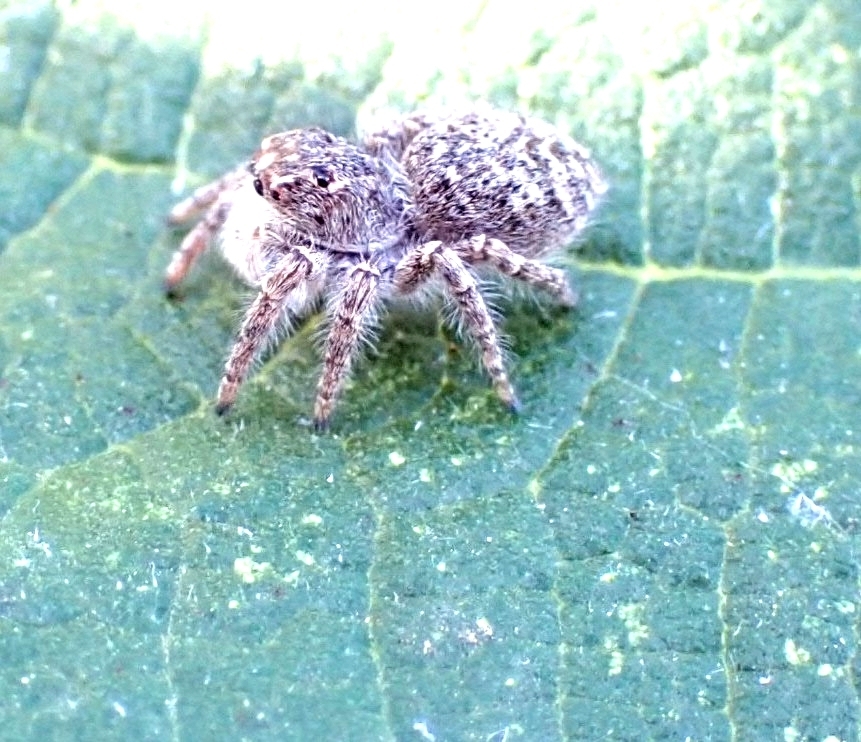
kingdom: Animalia
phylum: Arthropoda
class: Arachnida
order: Araneae
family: Salticidae
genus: Philaeus
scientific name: Philaeus chrysops
